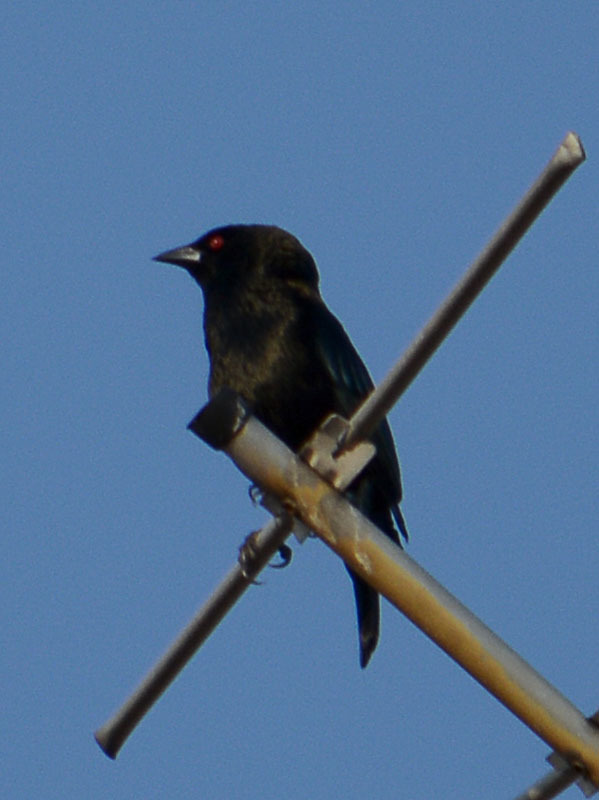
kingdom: Animalia
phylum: Chordata
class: Aves
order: Passeriformes
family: Icteridae
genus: Molothrus
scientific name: Molothrus aeneus
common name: Bronzed cowbird
